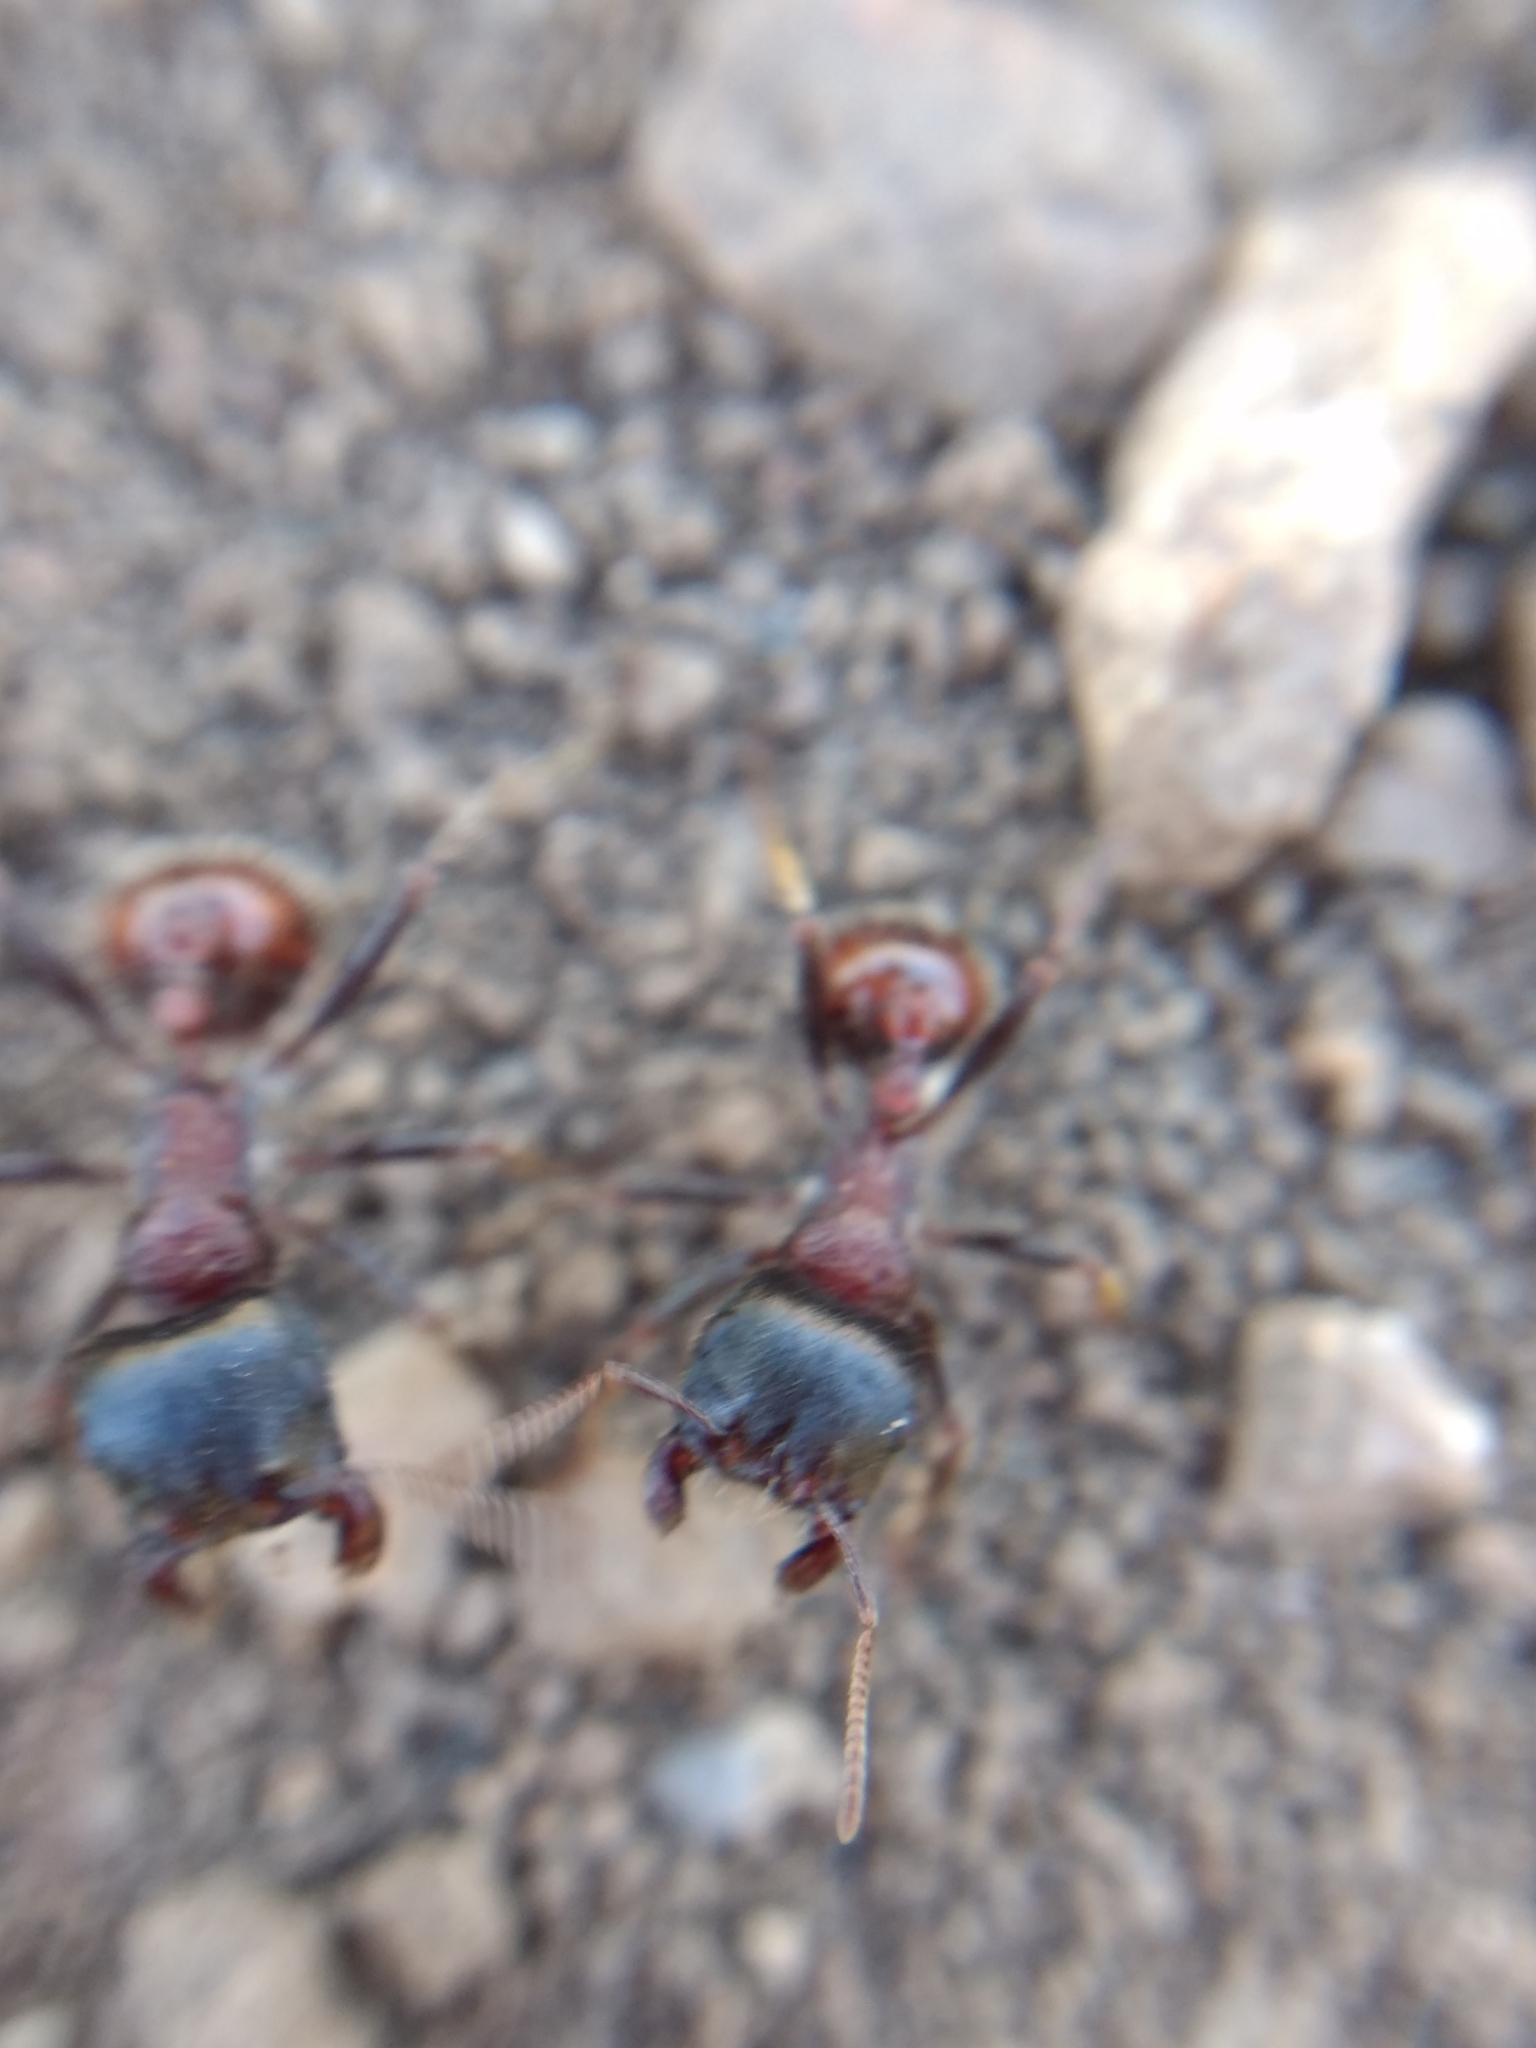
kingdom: Animalia
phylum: Arthropoda
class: Insecta
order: Hymenoptera
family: Formicidae
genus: Pogonomyrmex
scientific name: Pogonomyrmex rugosus
